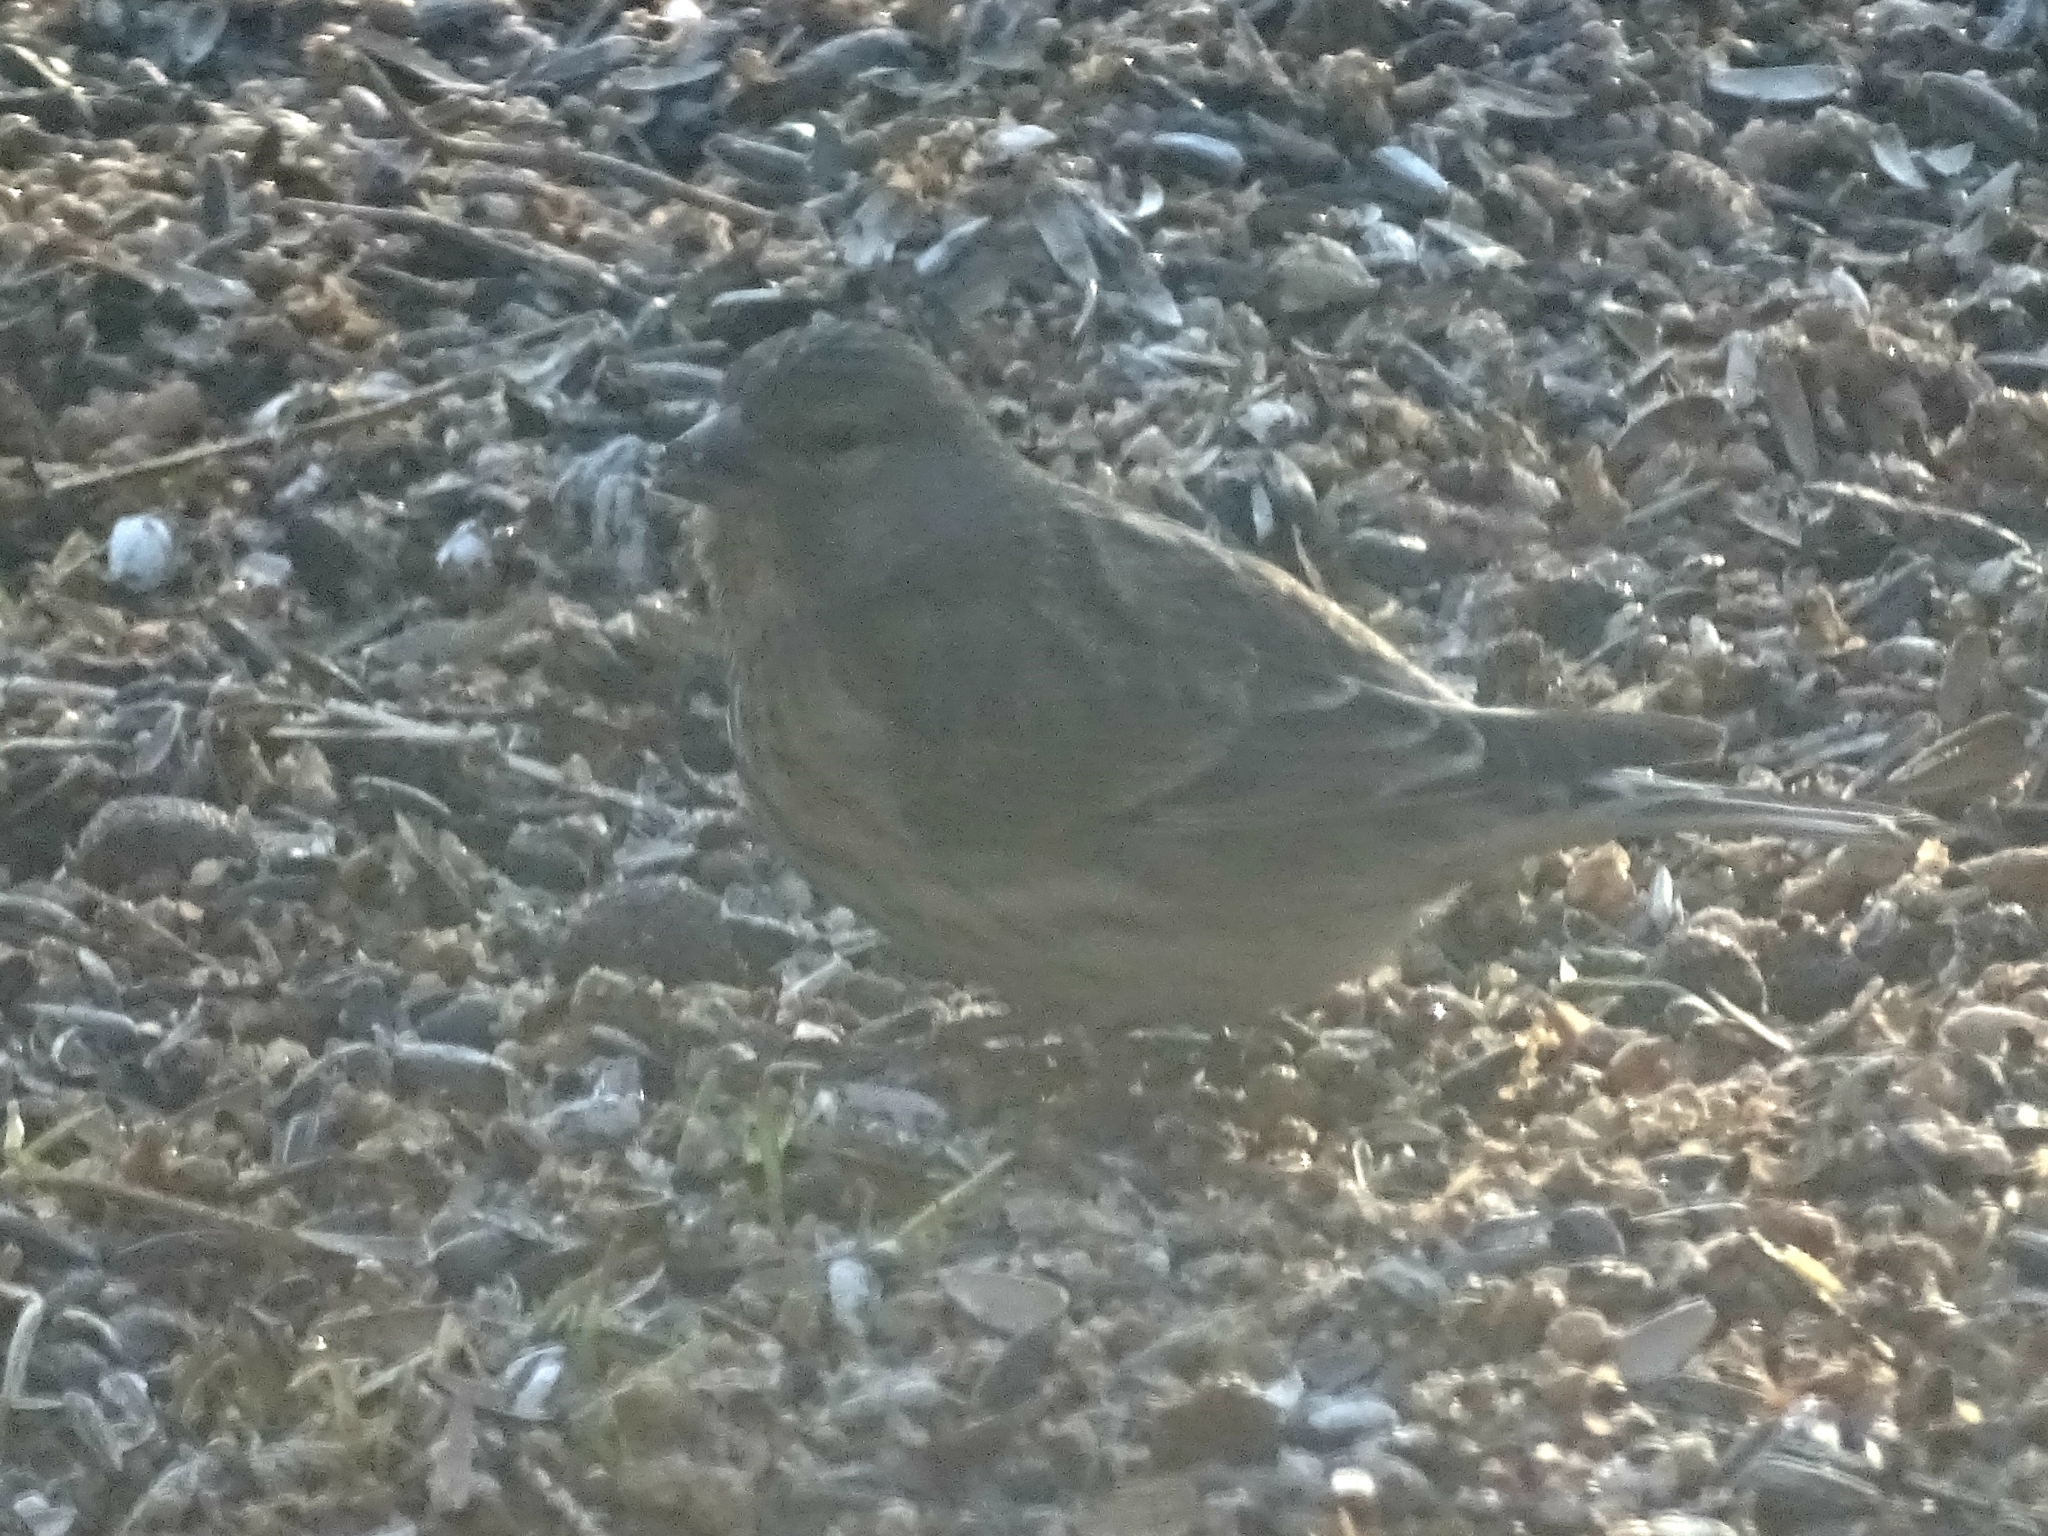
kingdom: Animalia
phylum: Chordata
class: Aves
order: Passeriformes
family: Fringillidae
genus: Linaria
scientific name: Linaria cannabina
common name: Common linnet
